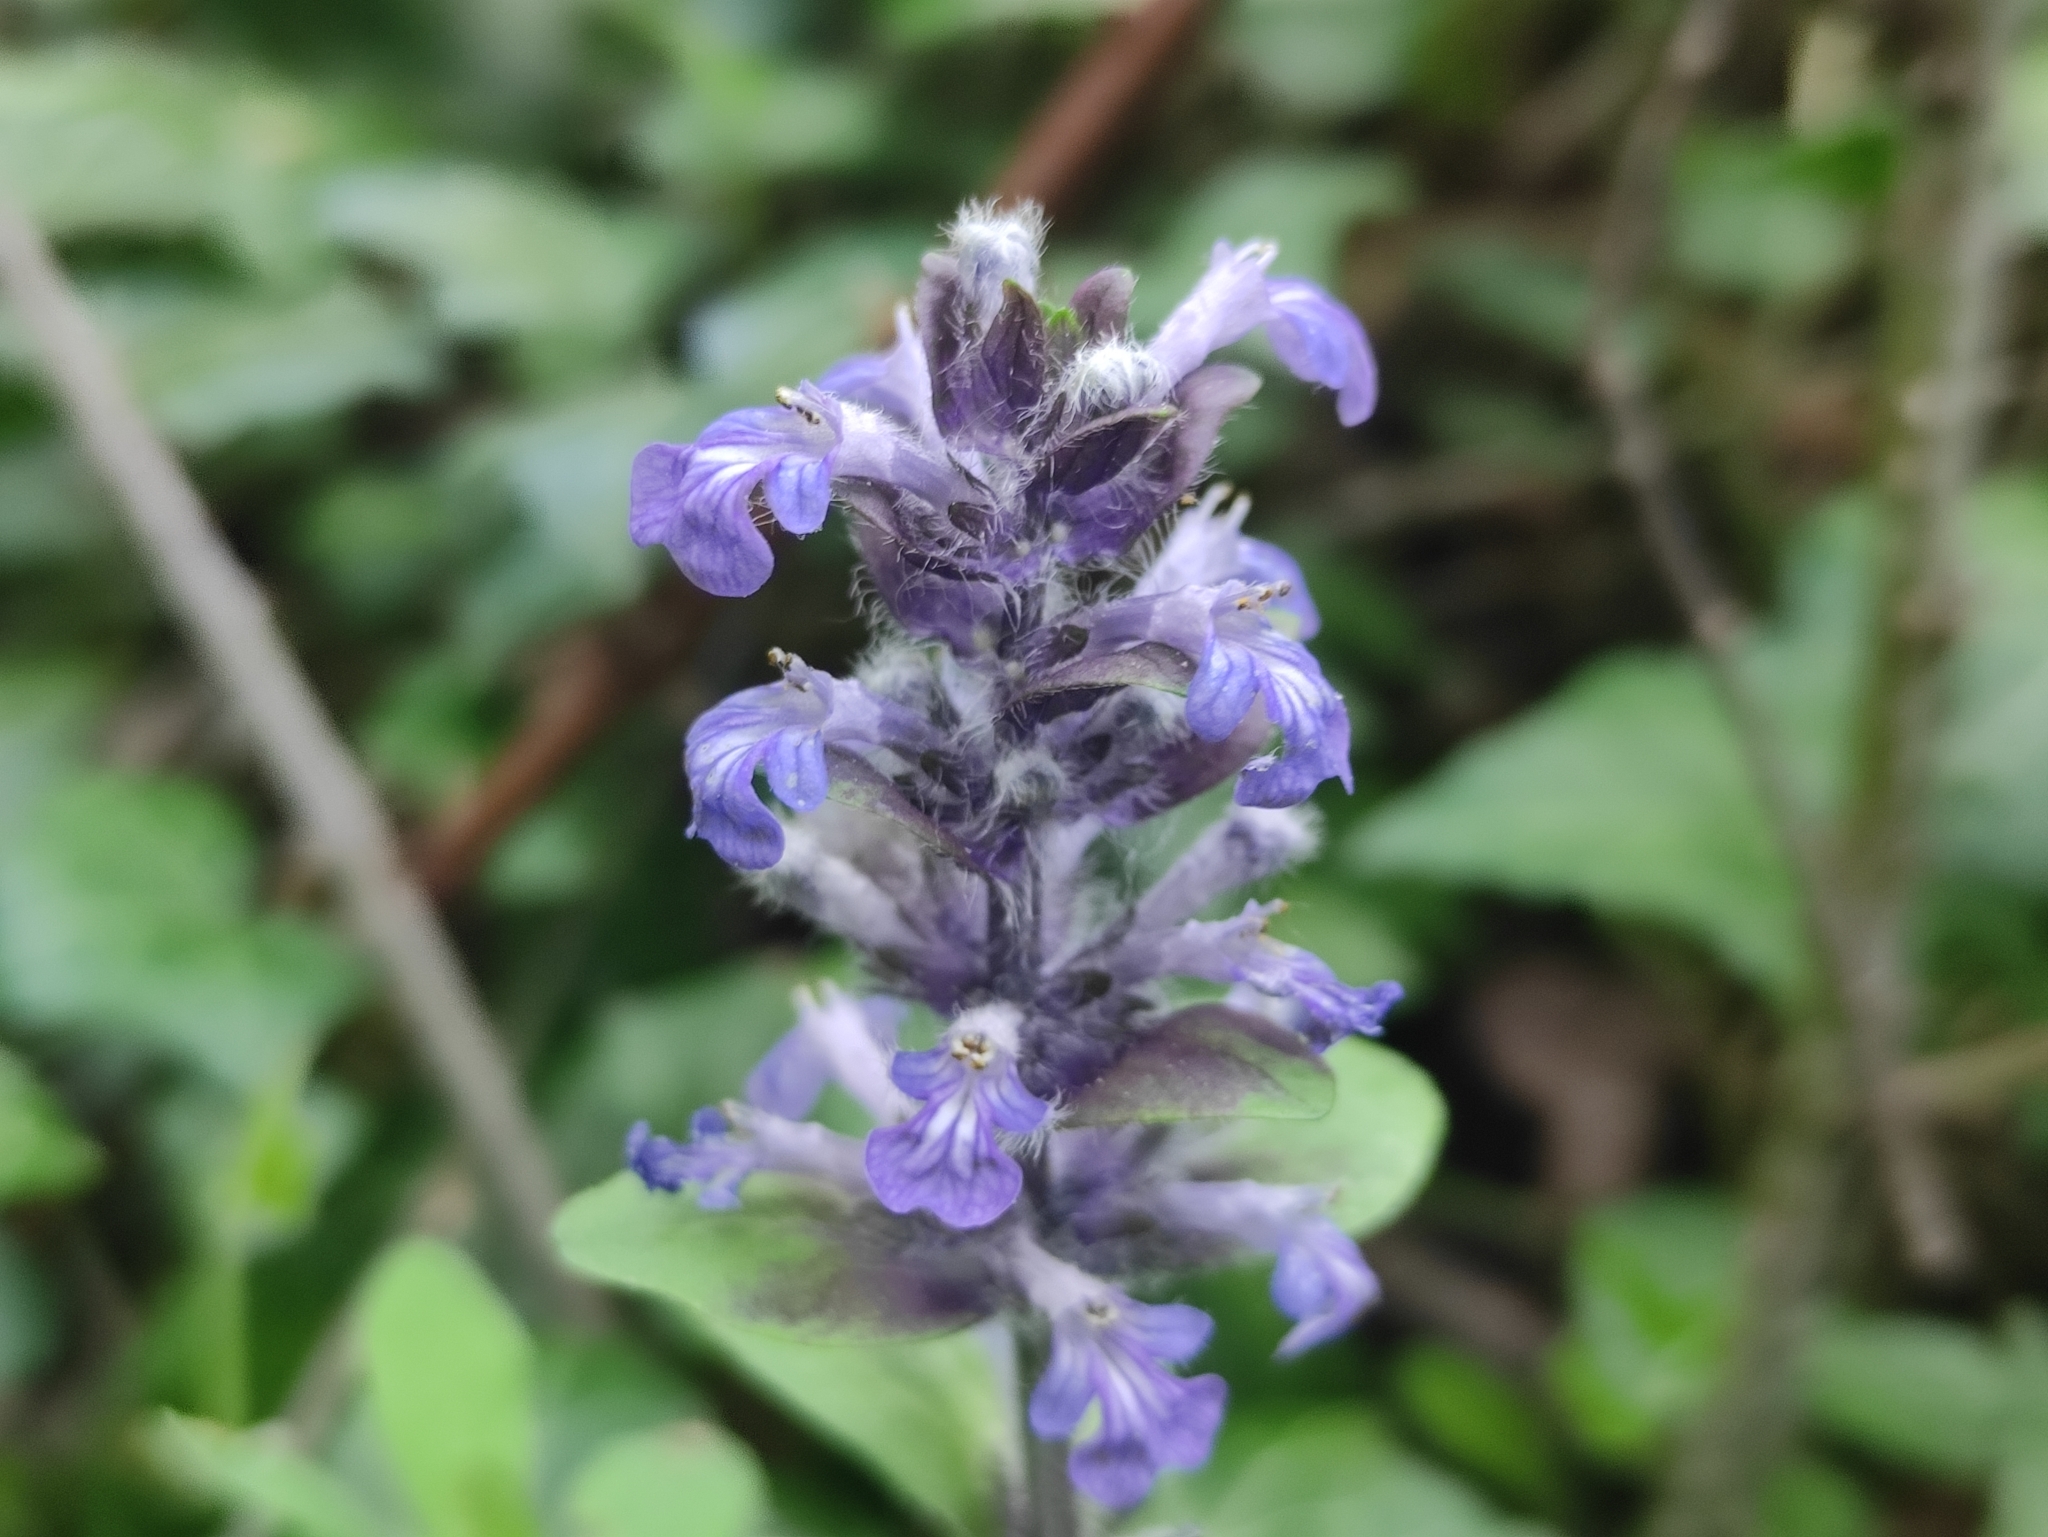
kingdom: Plantae
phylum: Tracheophyta
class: Magnoliopsida
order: Lamiales
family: Lamiaceae
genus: Ajuga
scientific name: Ajuga reptans
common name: Bugle
